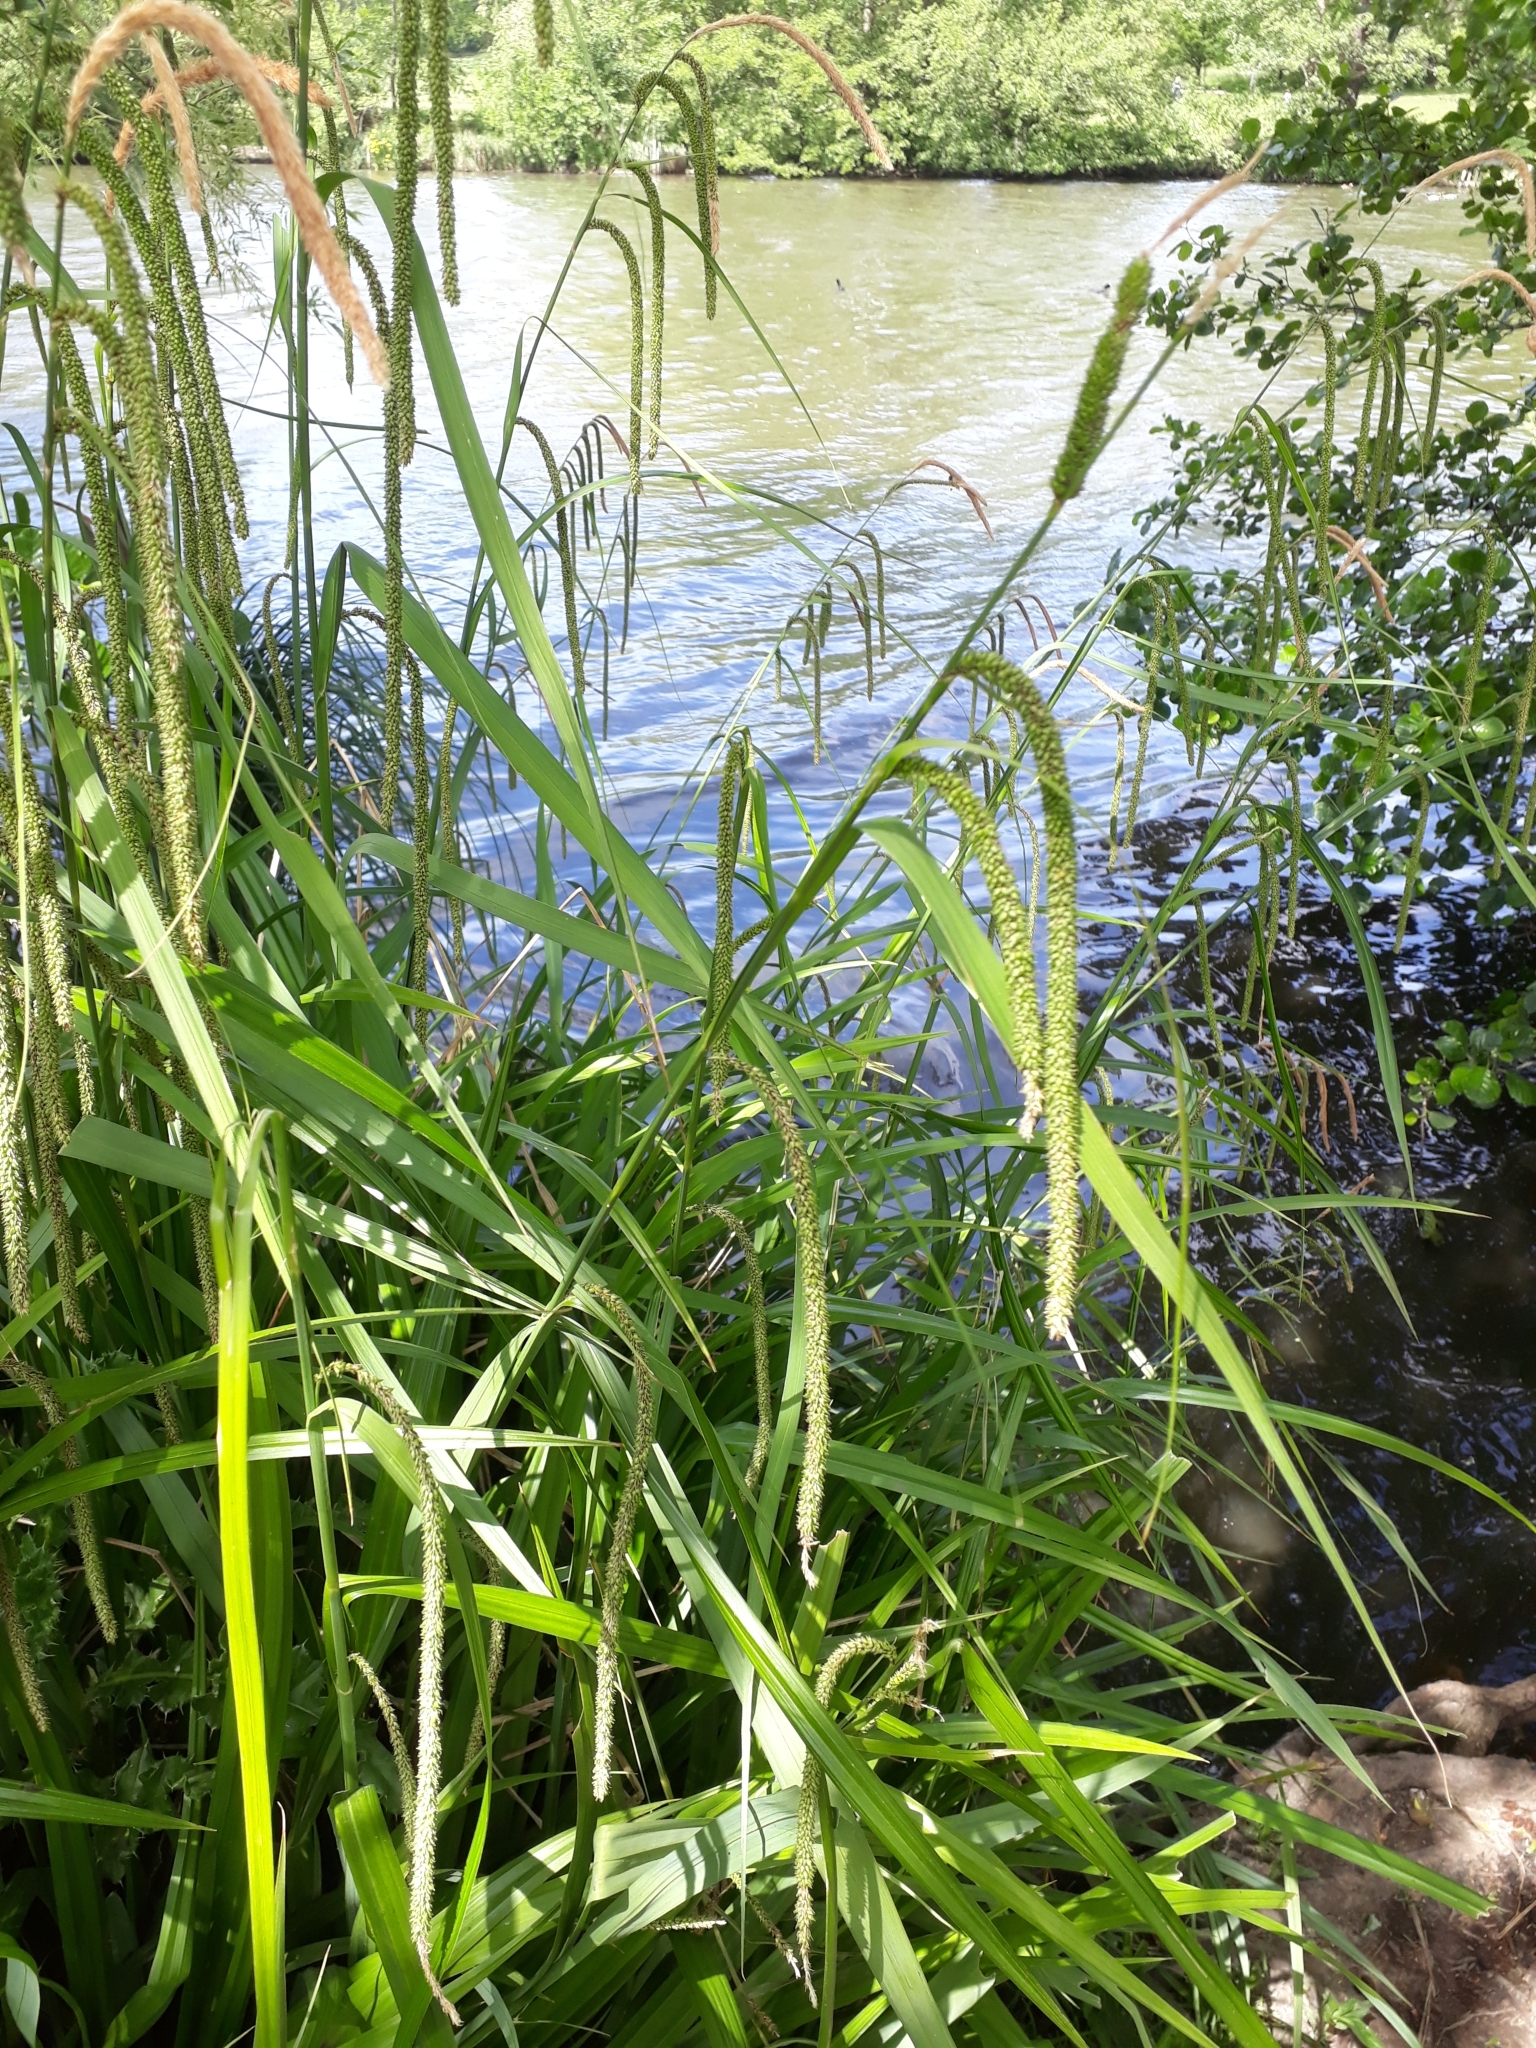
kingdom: Plantae
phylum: Tracheophyta
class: Liliopsida
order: Poales
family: Cyperaceae
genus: Carex
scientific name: Carex pendula
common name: Pendulous sedge
